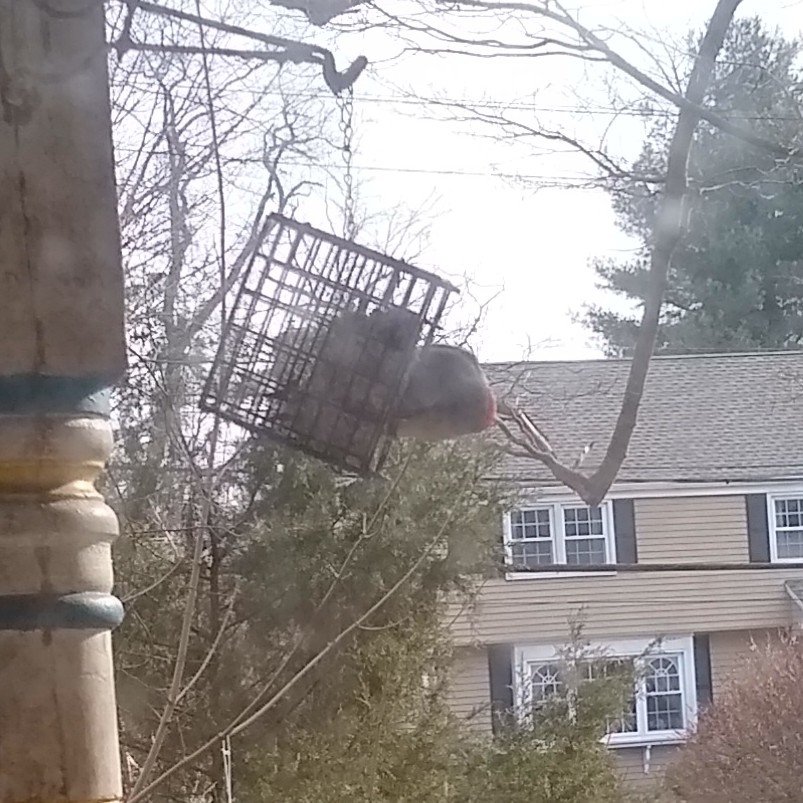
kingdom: Animalia
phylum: Chordata
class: Aves
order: Piciformes
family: Picidae
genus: Melanerpes
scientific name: Melanerpes carolinus
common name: Red-bellied woodpecker
